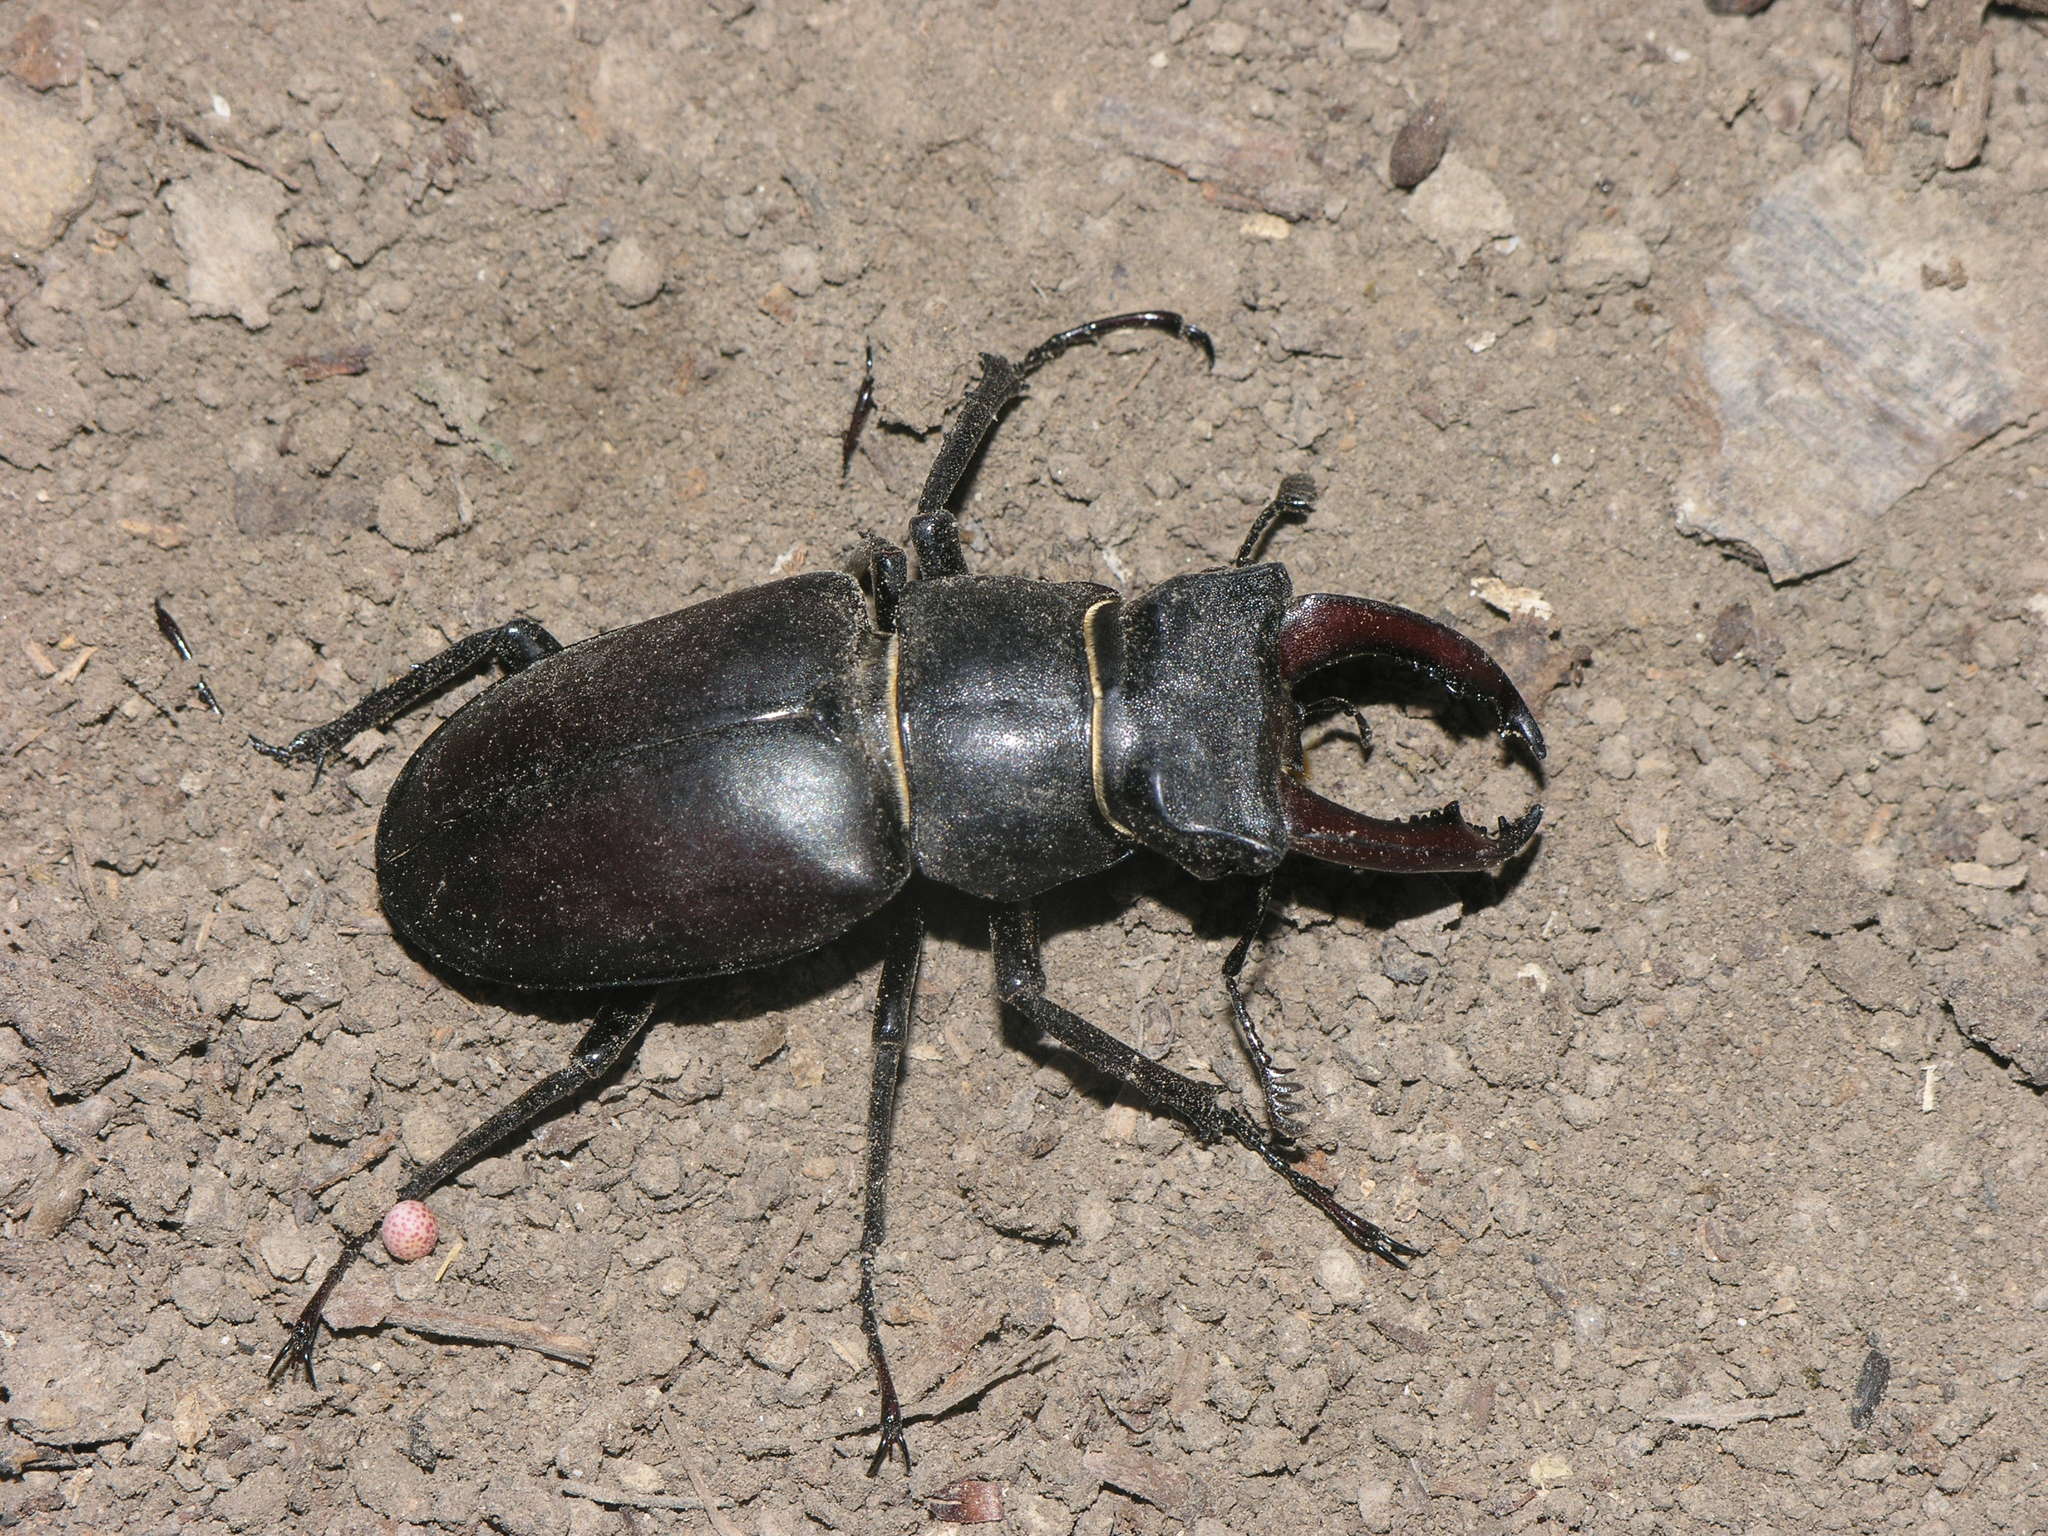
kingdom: Animalia
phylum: Arthropoda
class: Insecta
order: Coleoptera
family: Lucanidae
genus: Lucanus
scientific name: Lucanus cervus
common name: Stag beetle
